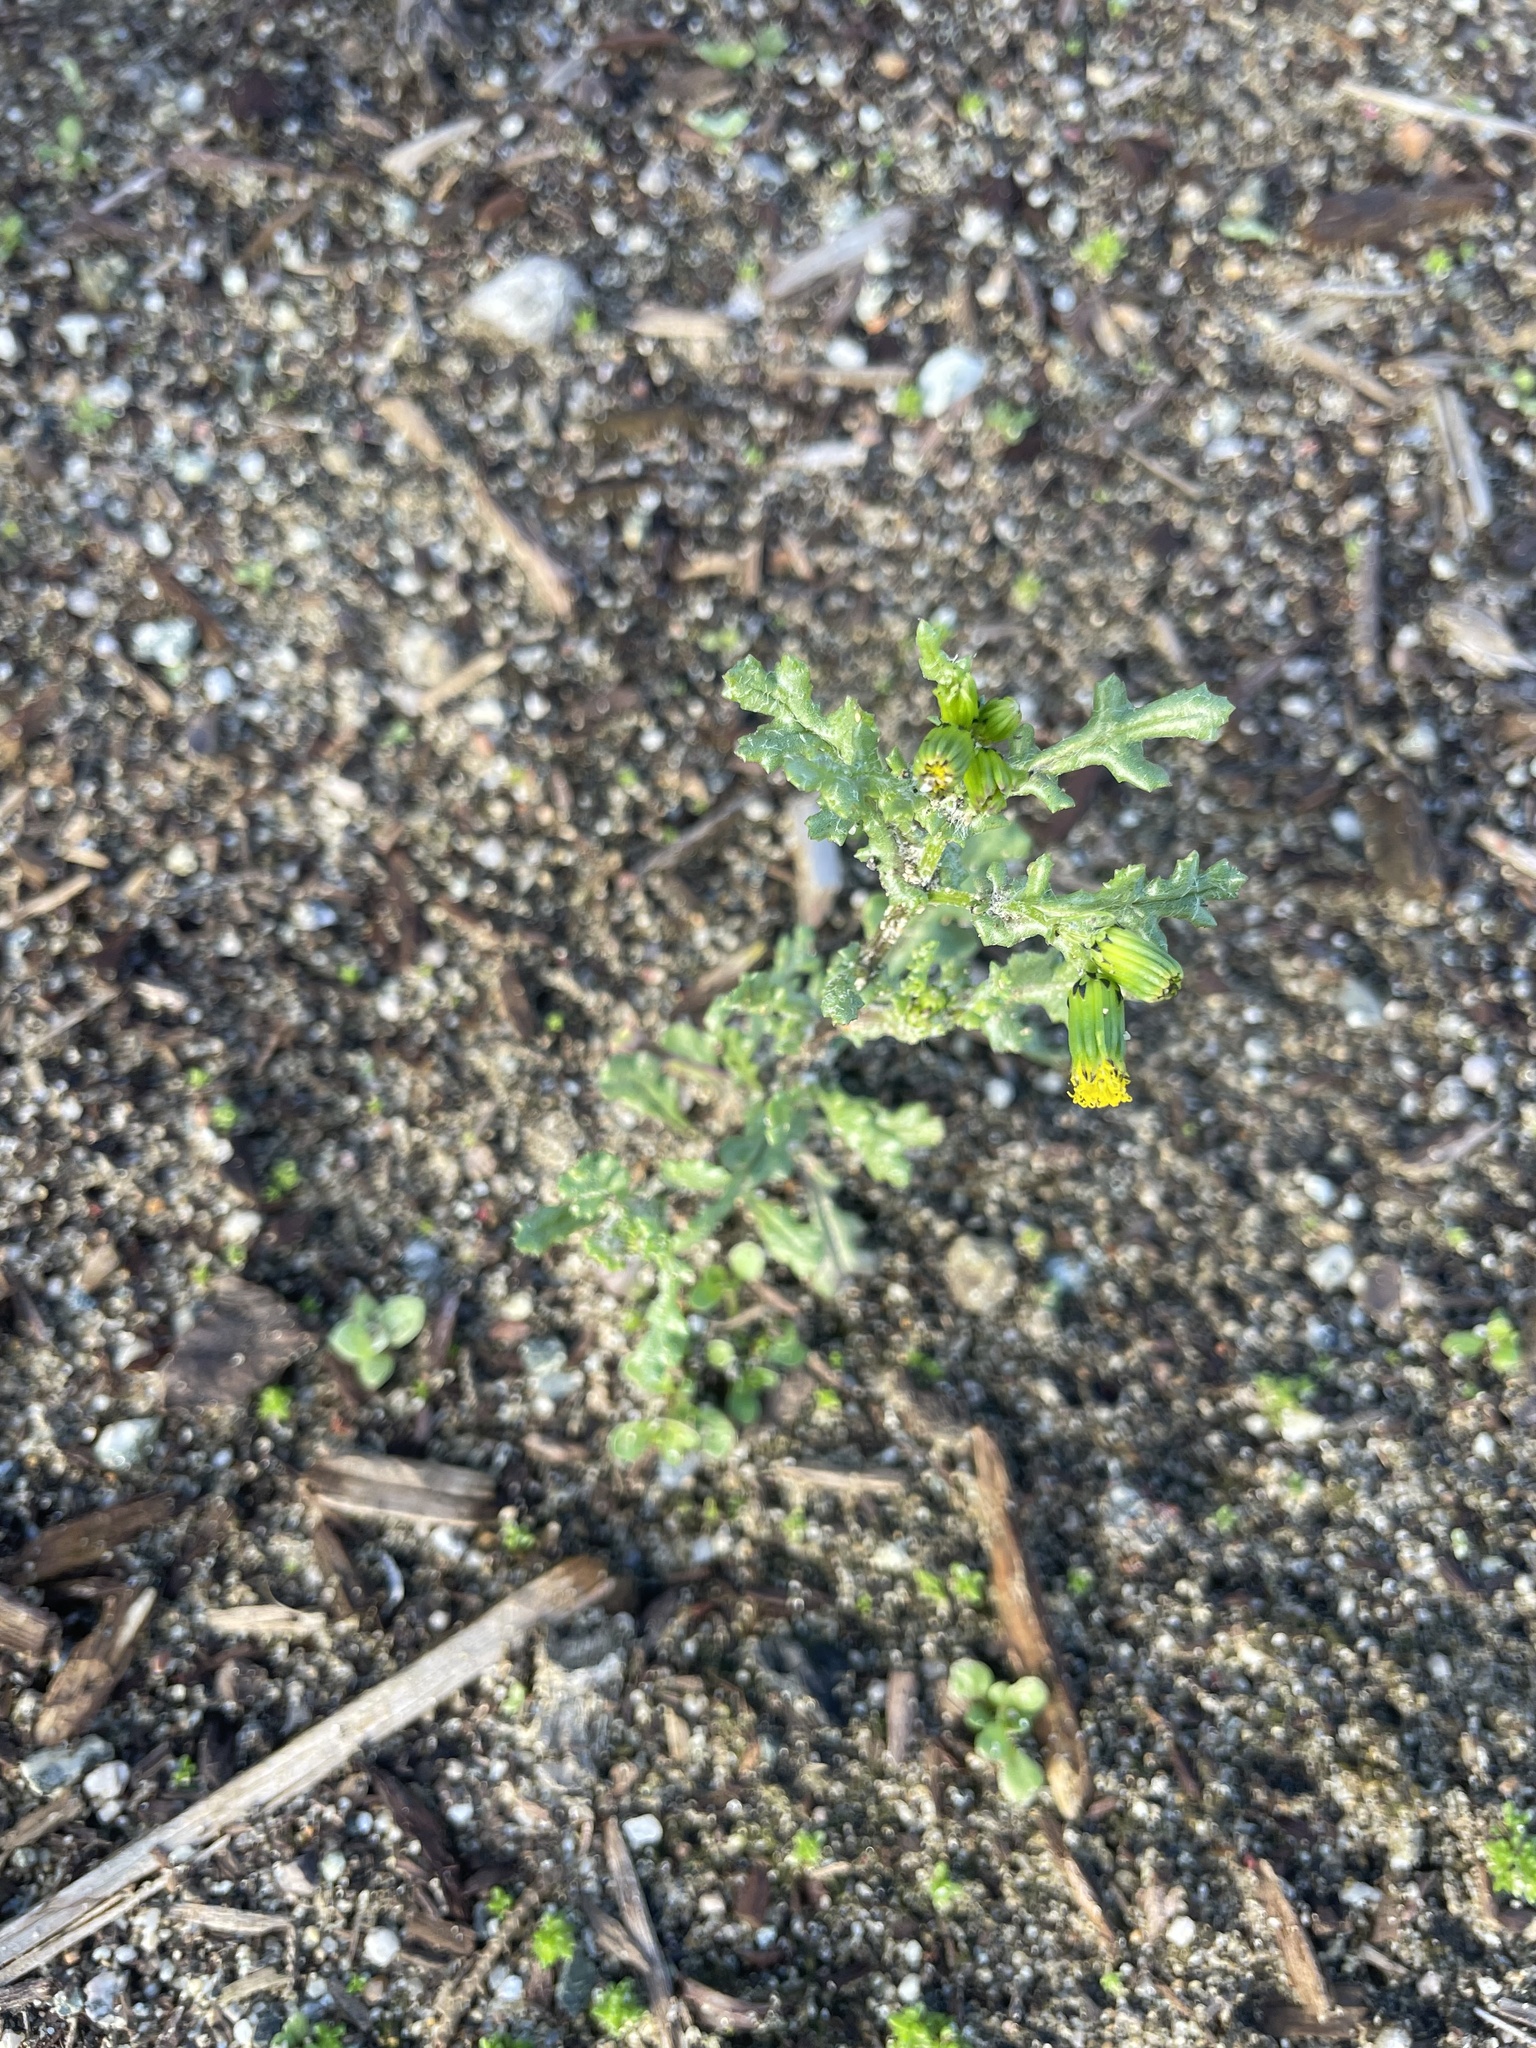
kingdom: Plantae
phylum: Tracheophyta
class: Magnoliopsida
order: Asterales
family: Asteraceae
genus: Senecio
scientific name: Senecio vulgaris
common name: Old-man-in-the-spring
